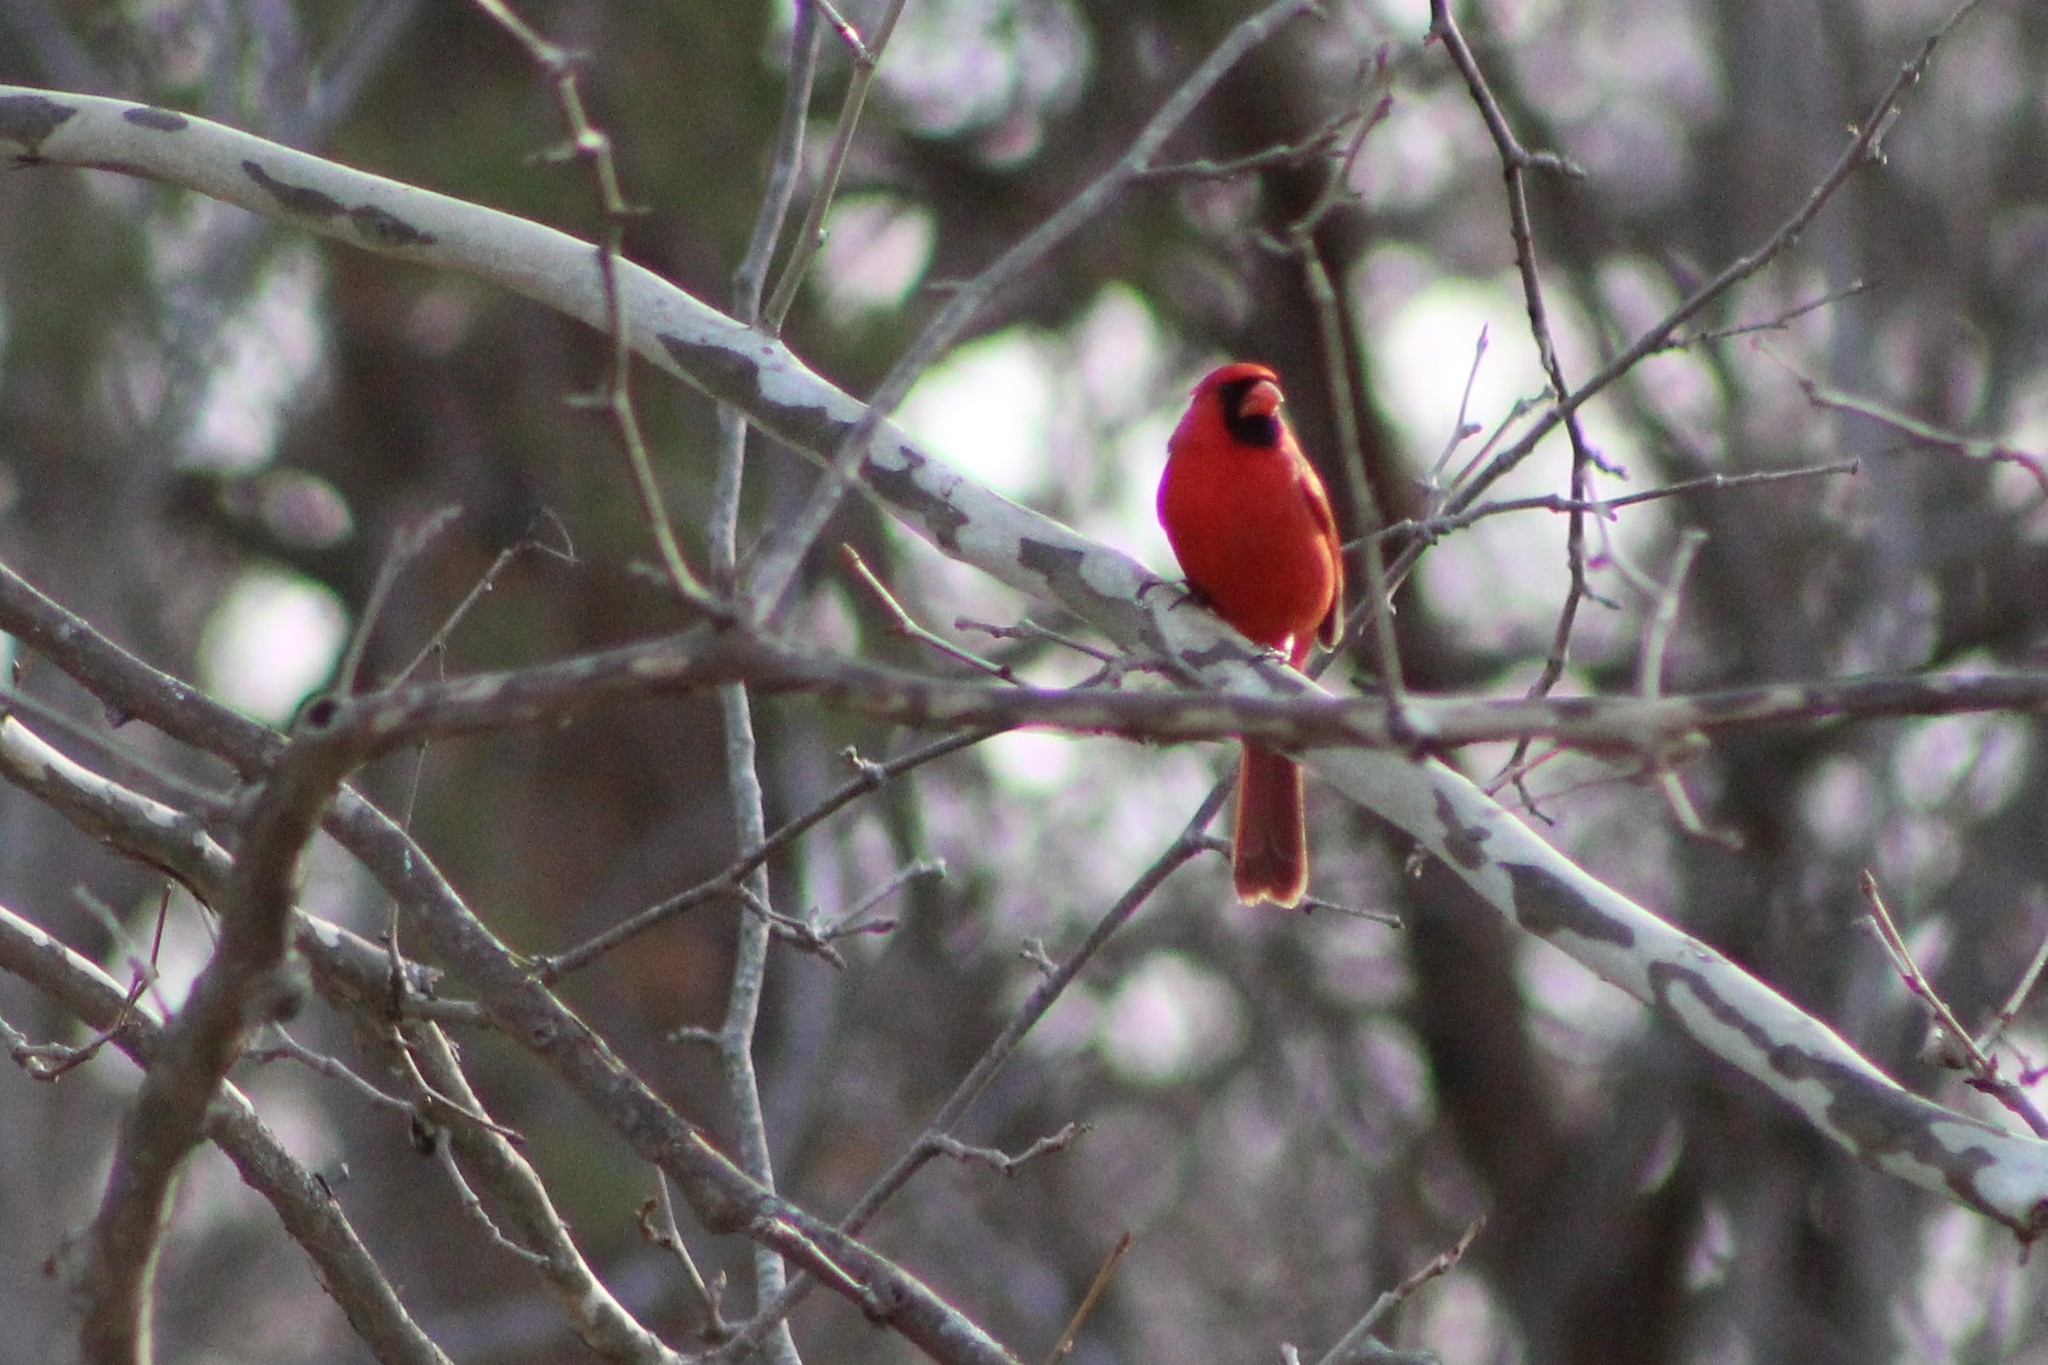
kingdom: Animalia
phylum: Chordata
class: Aves
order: Passeriformes
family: Cardinalidae
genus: Cardinalis
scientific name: Cardinalis cardinalis
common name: Northern cardinal
